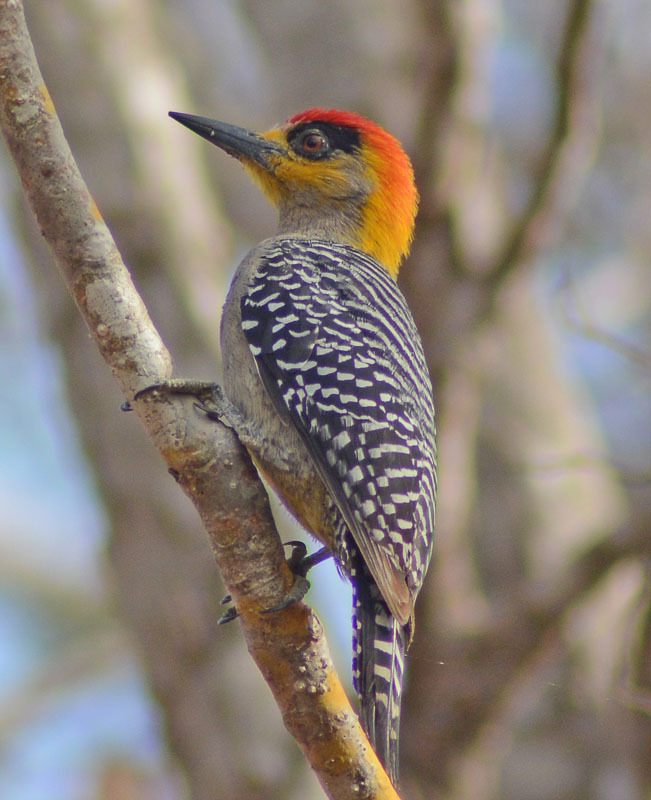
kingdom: Animalia
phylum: Chordata
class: Aves
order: Piciformes
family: Picidae
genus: Melanerpes
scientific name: Melanerpes chrysogenys
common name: Golden-cheeked woodpecker
